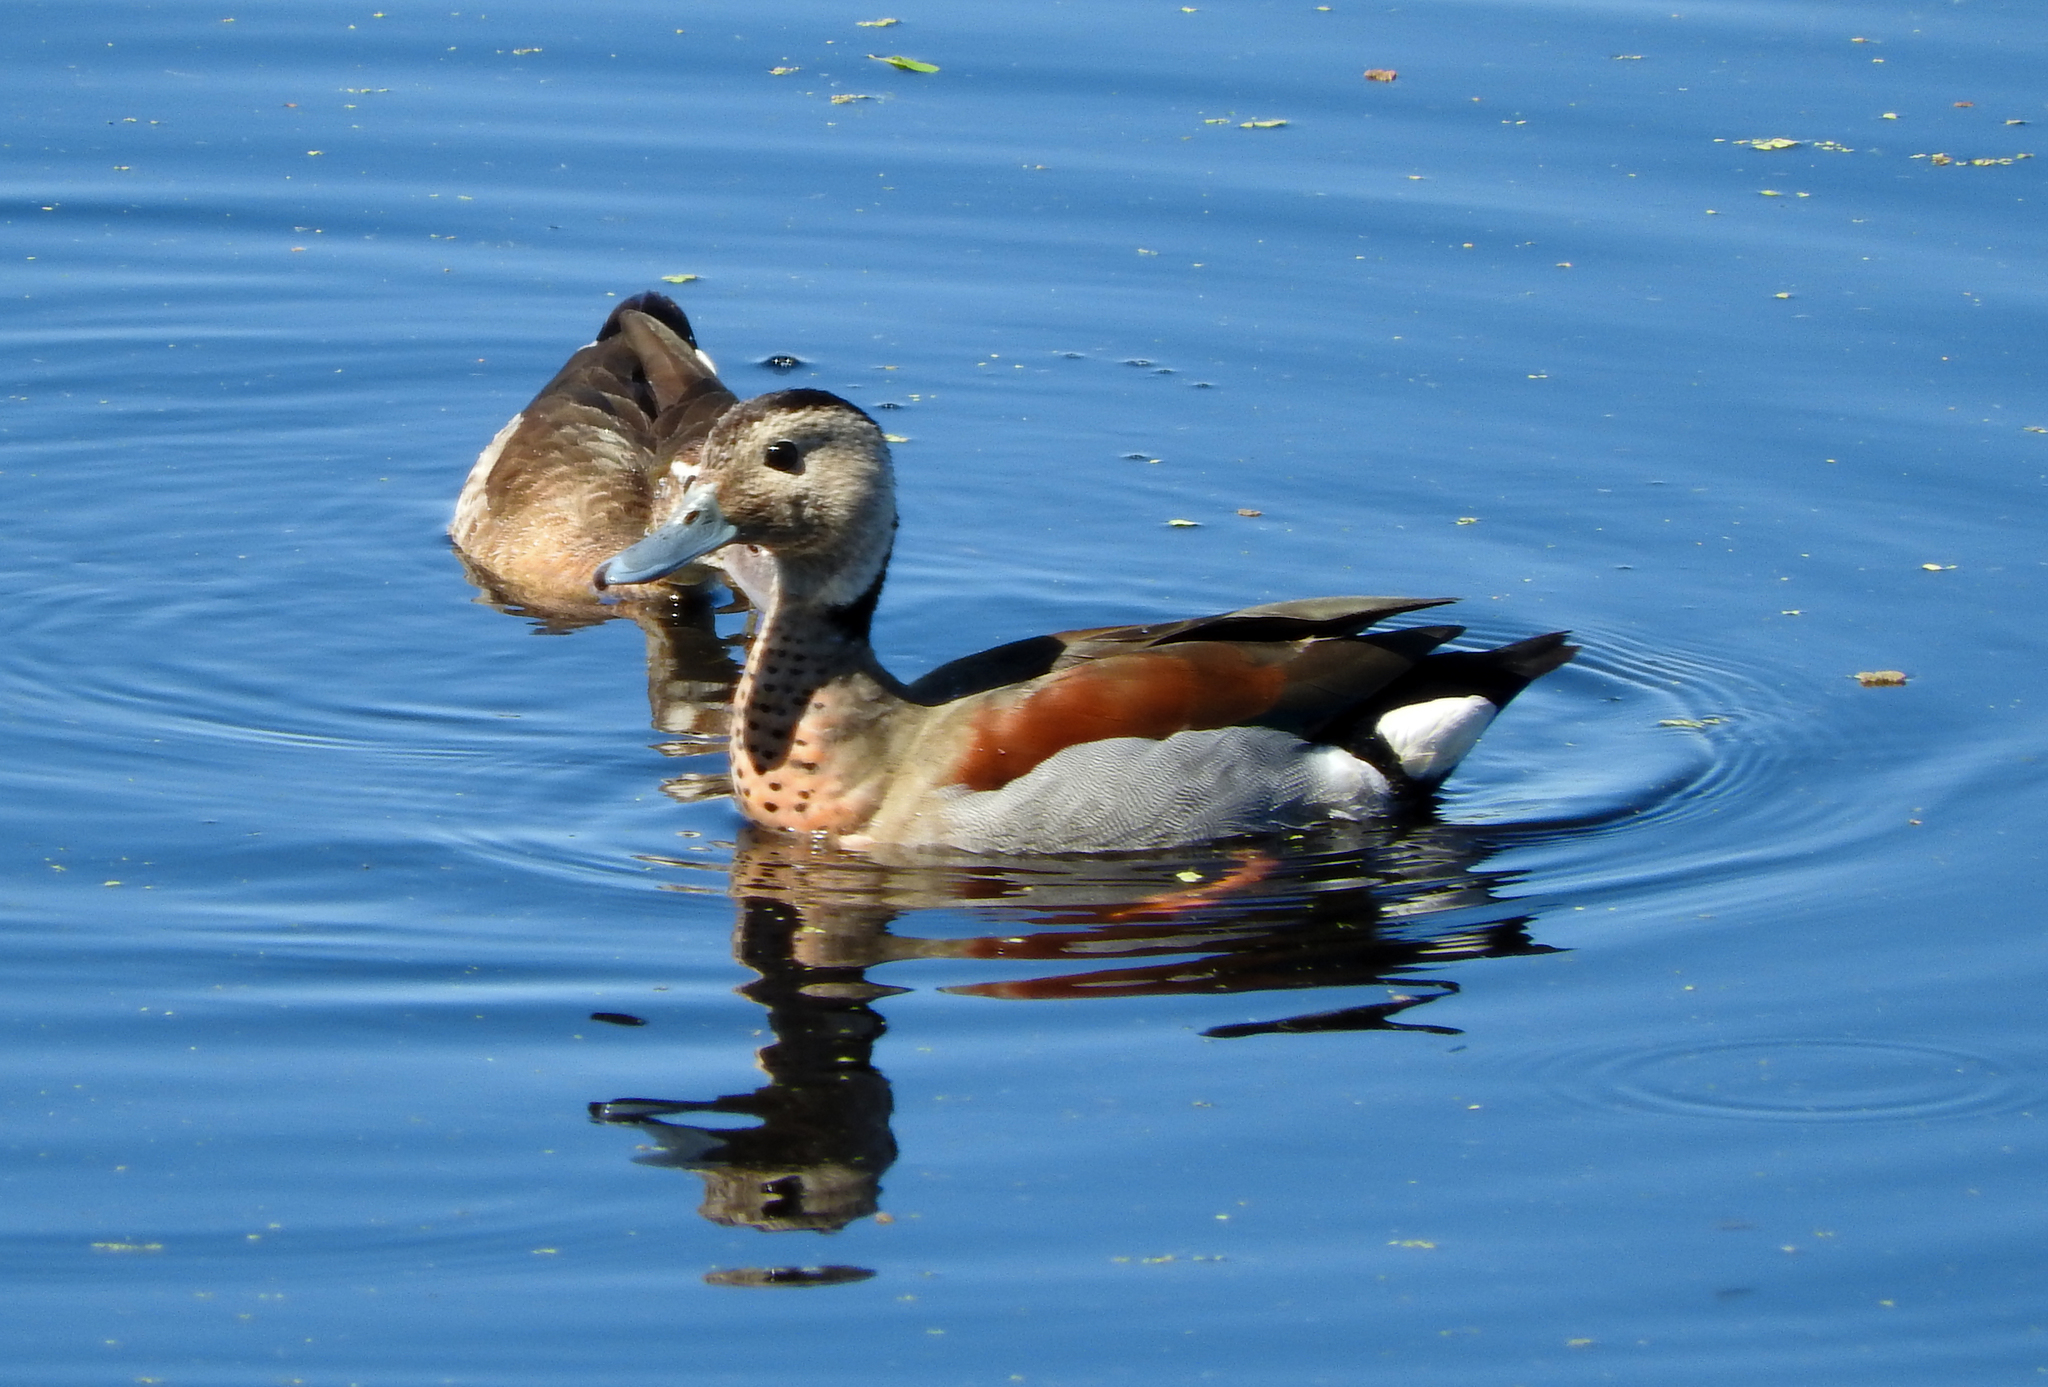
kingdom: Animalia
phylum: Chordata
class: Aves
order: Anseriformes
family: Anatidae
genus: Callonetta
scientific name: Callonetta leucophrys
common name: Ringed teal
